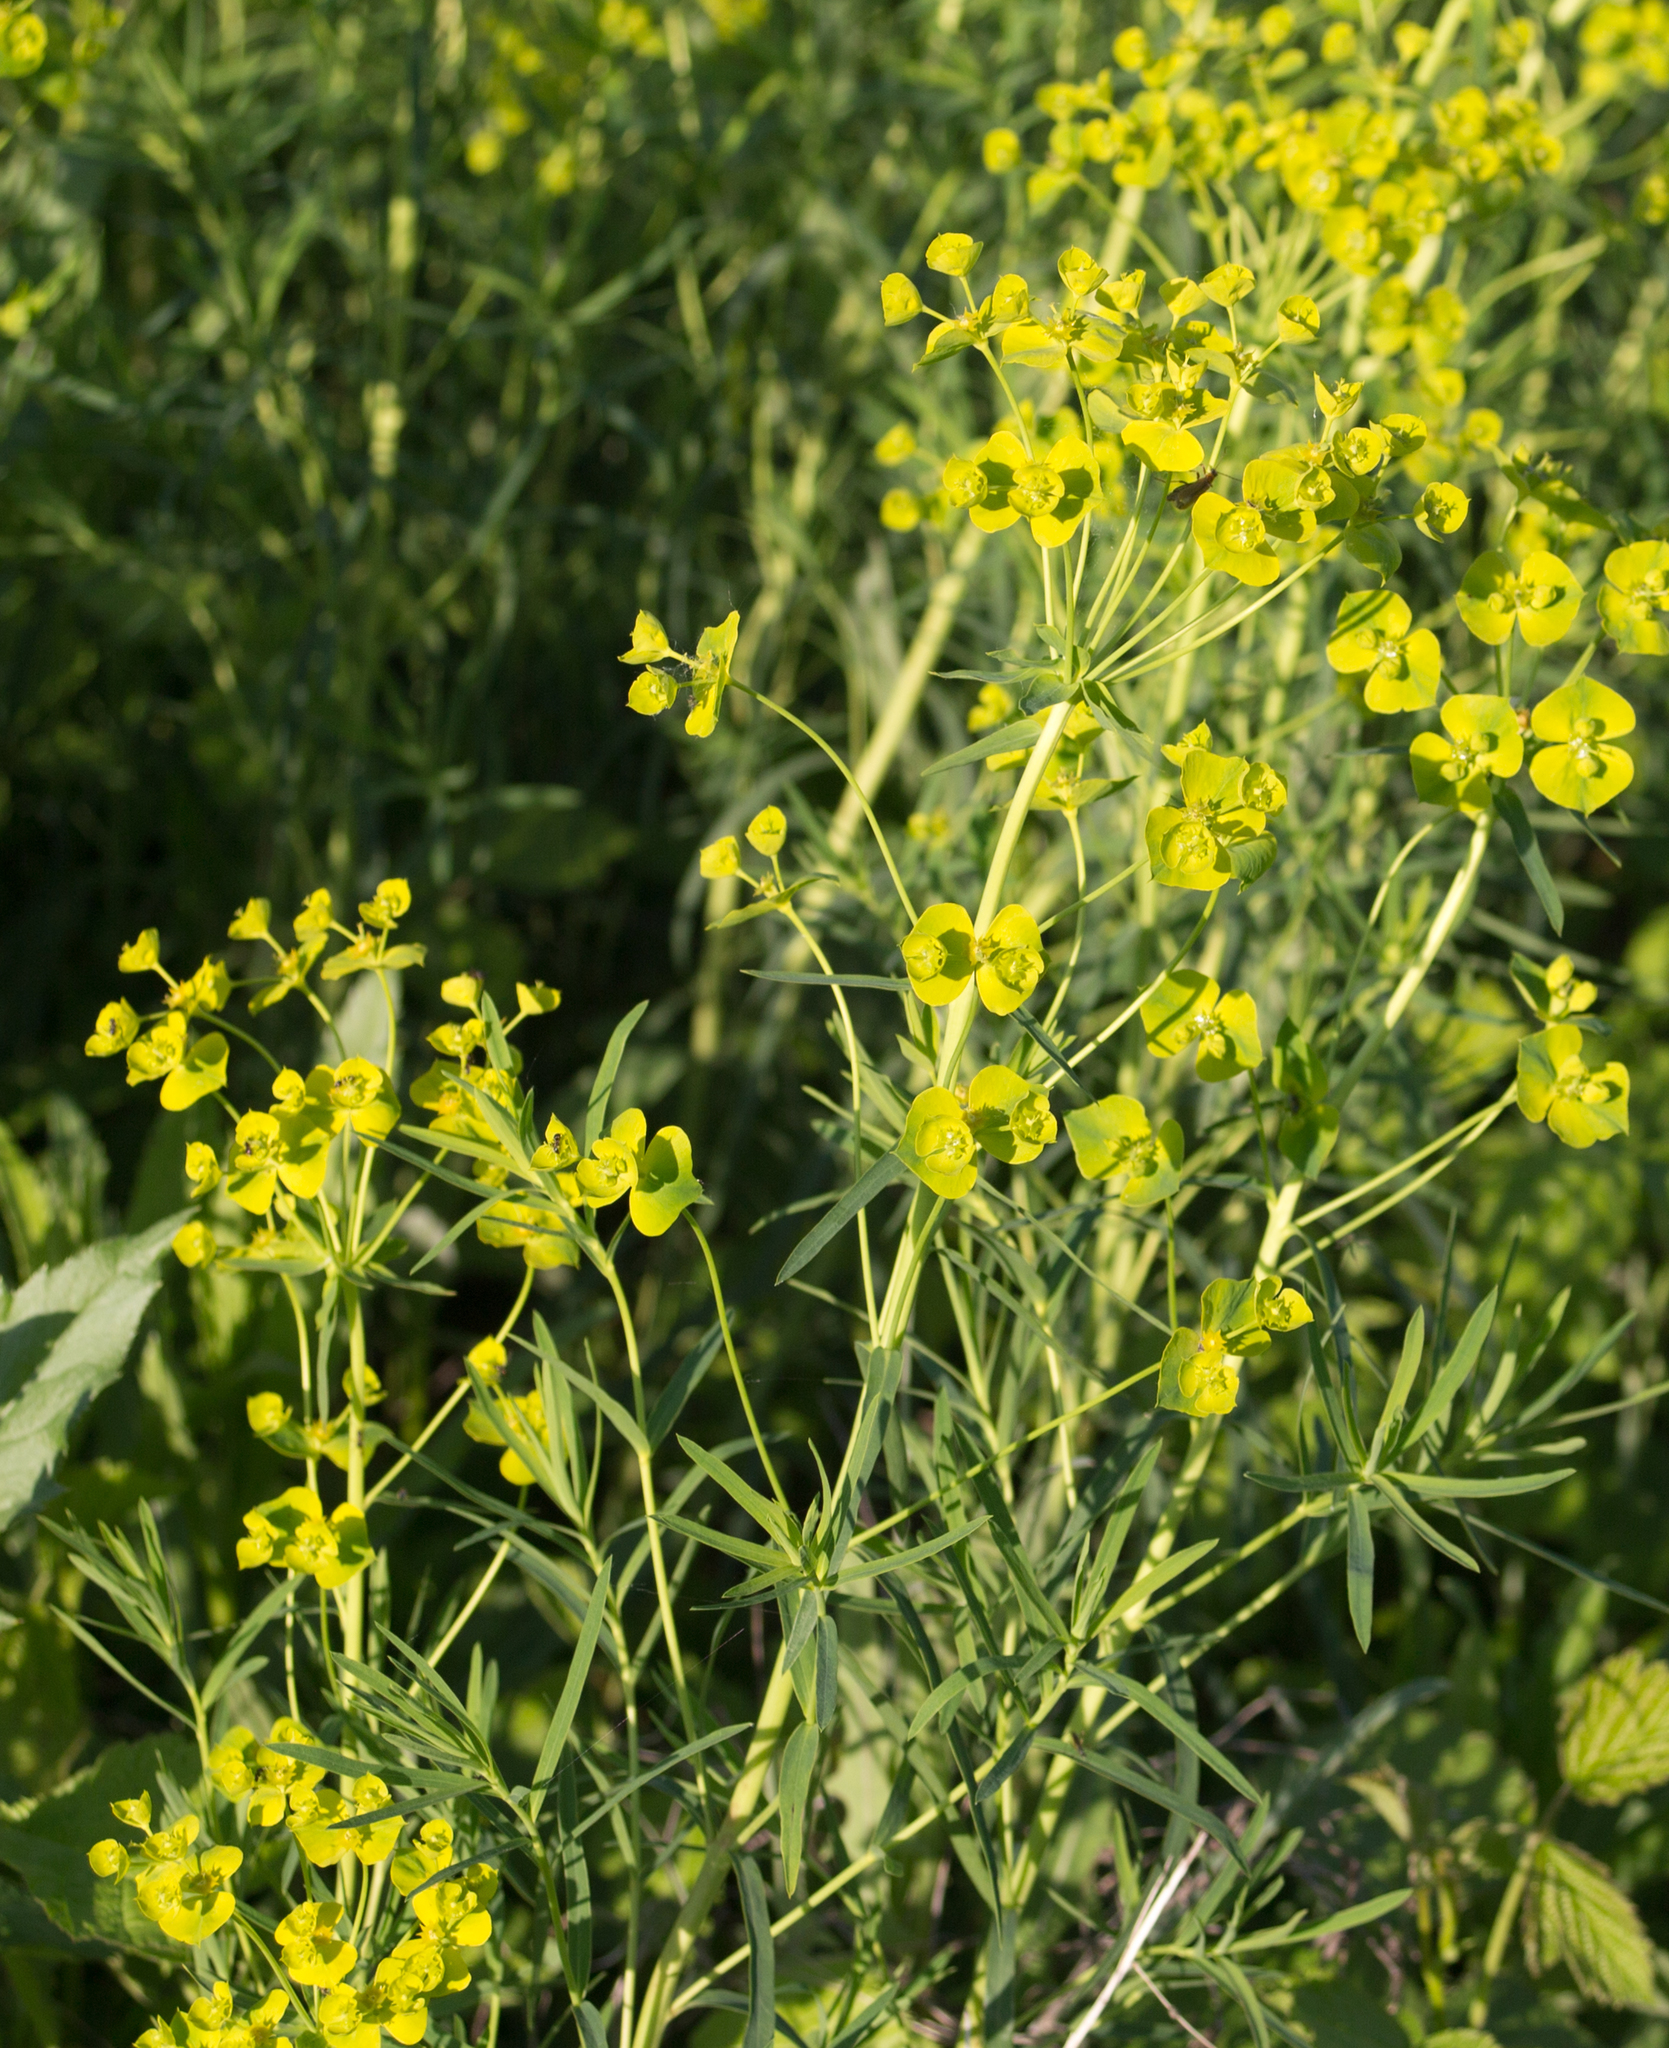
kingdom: Plantae
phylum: Tracheophyta
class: Magnoliopsida
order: Malpighiales
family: Euphorbiaceae
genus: Euphorbia
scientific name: Euphorbia virgata
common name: Leafy spurge
